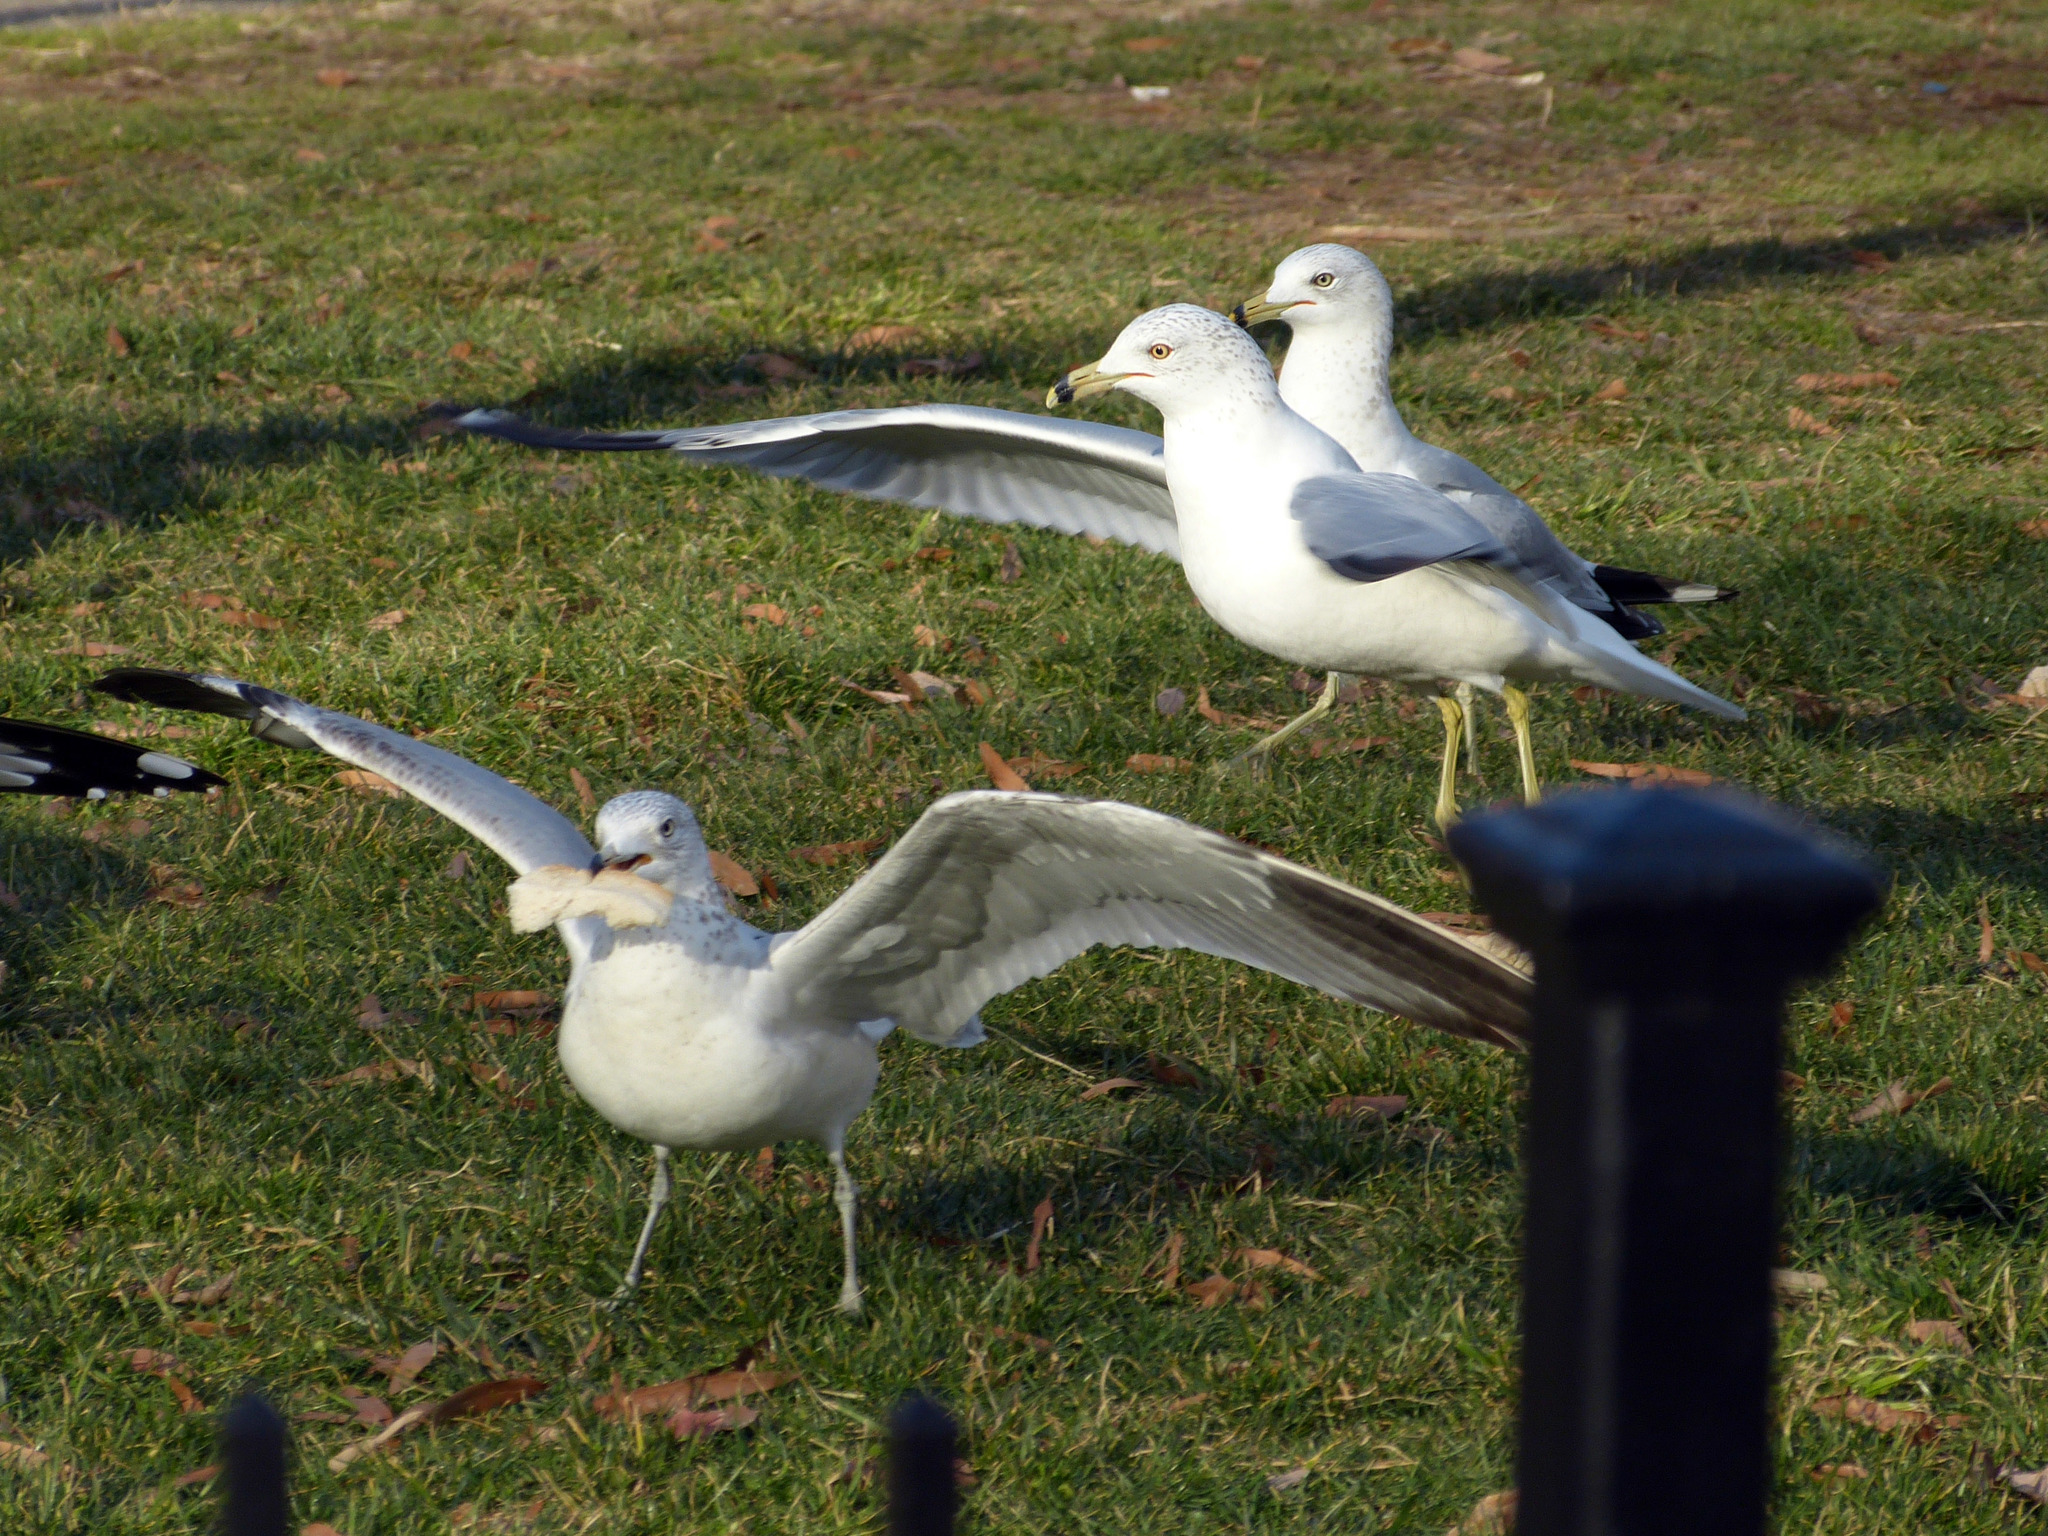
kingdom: Animalia
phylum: Chordata
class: Aves
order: Charadriiformes
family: Laridae
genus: Larus
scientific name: Larus delawarensis
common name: Ring-billed gull
